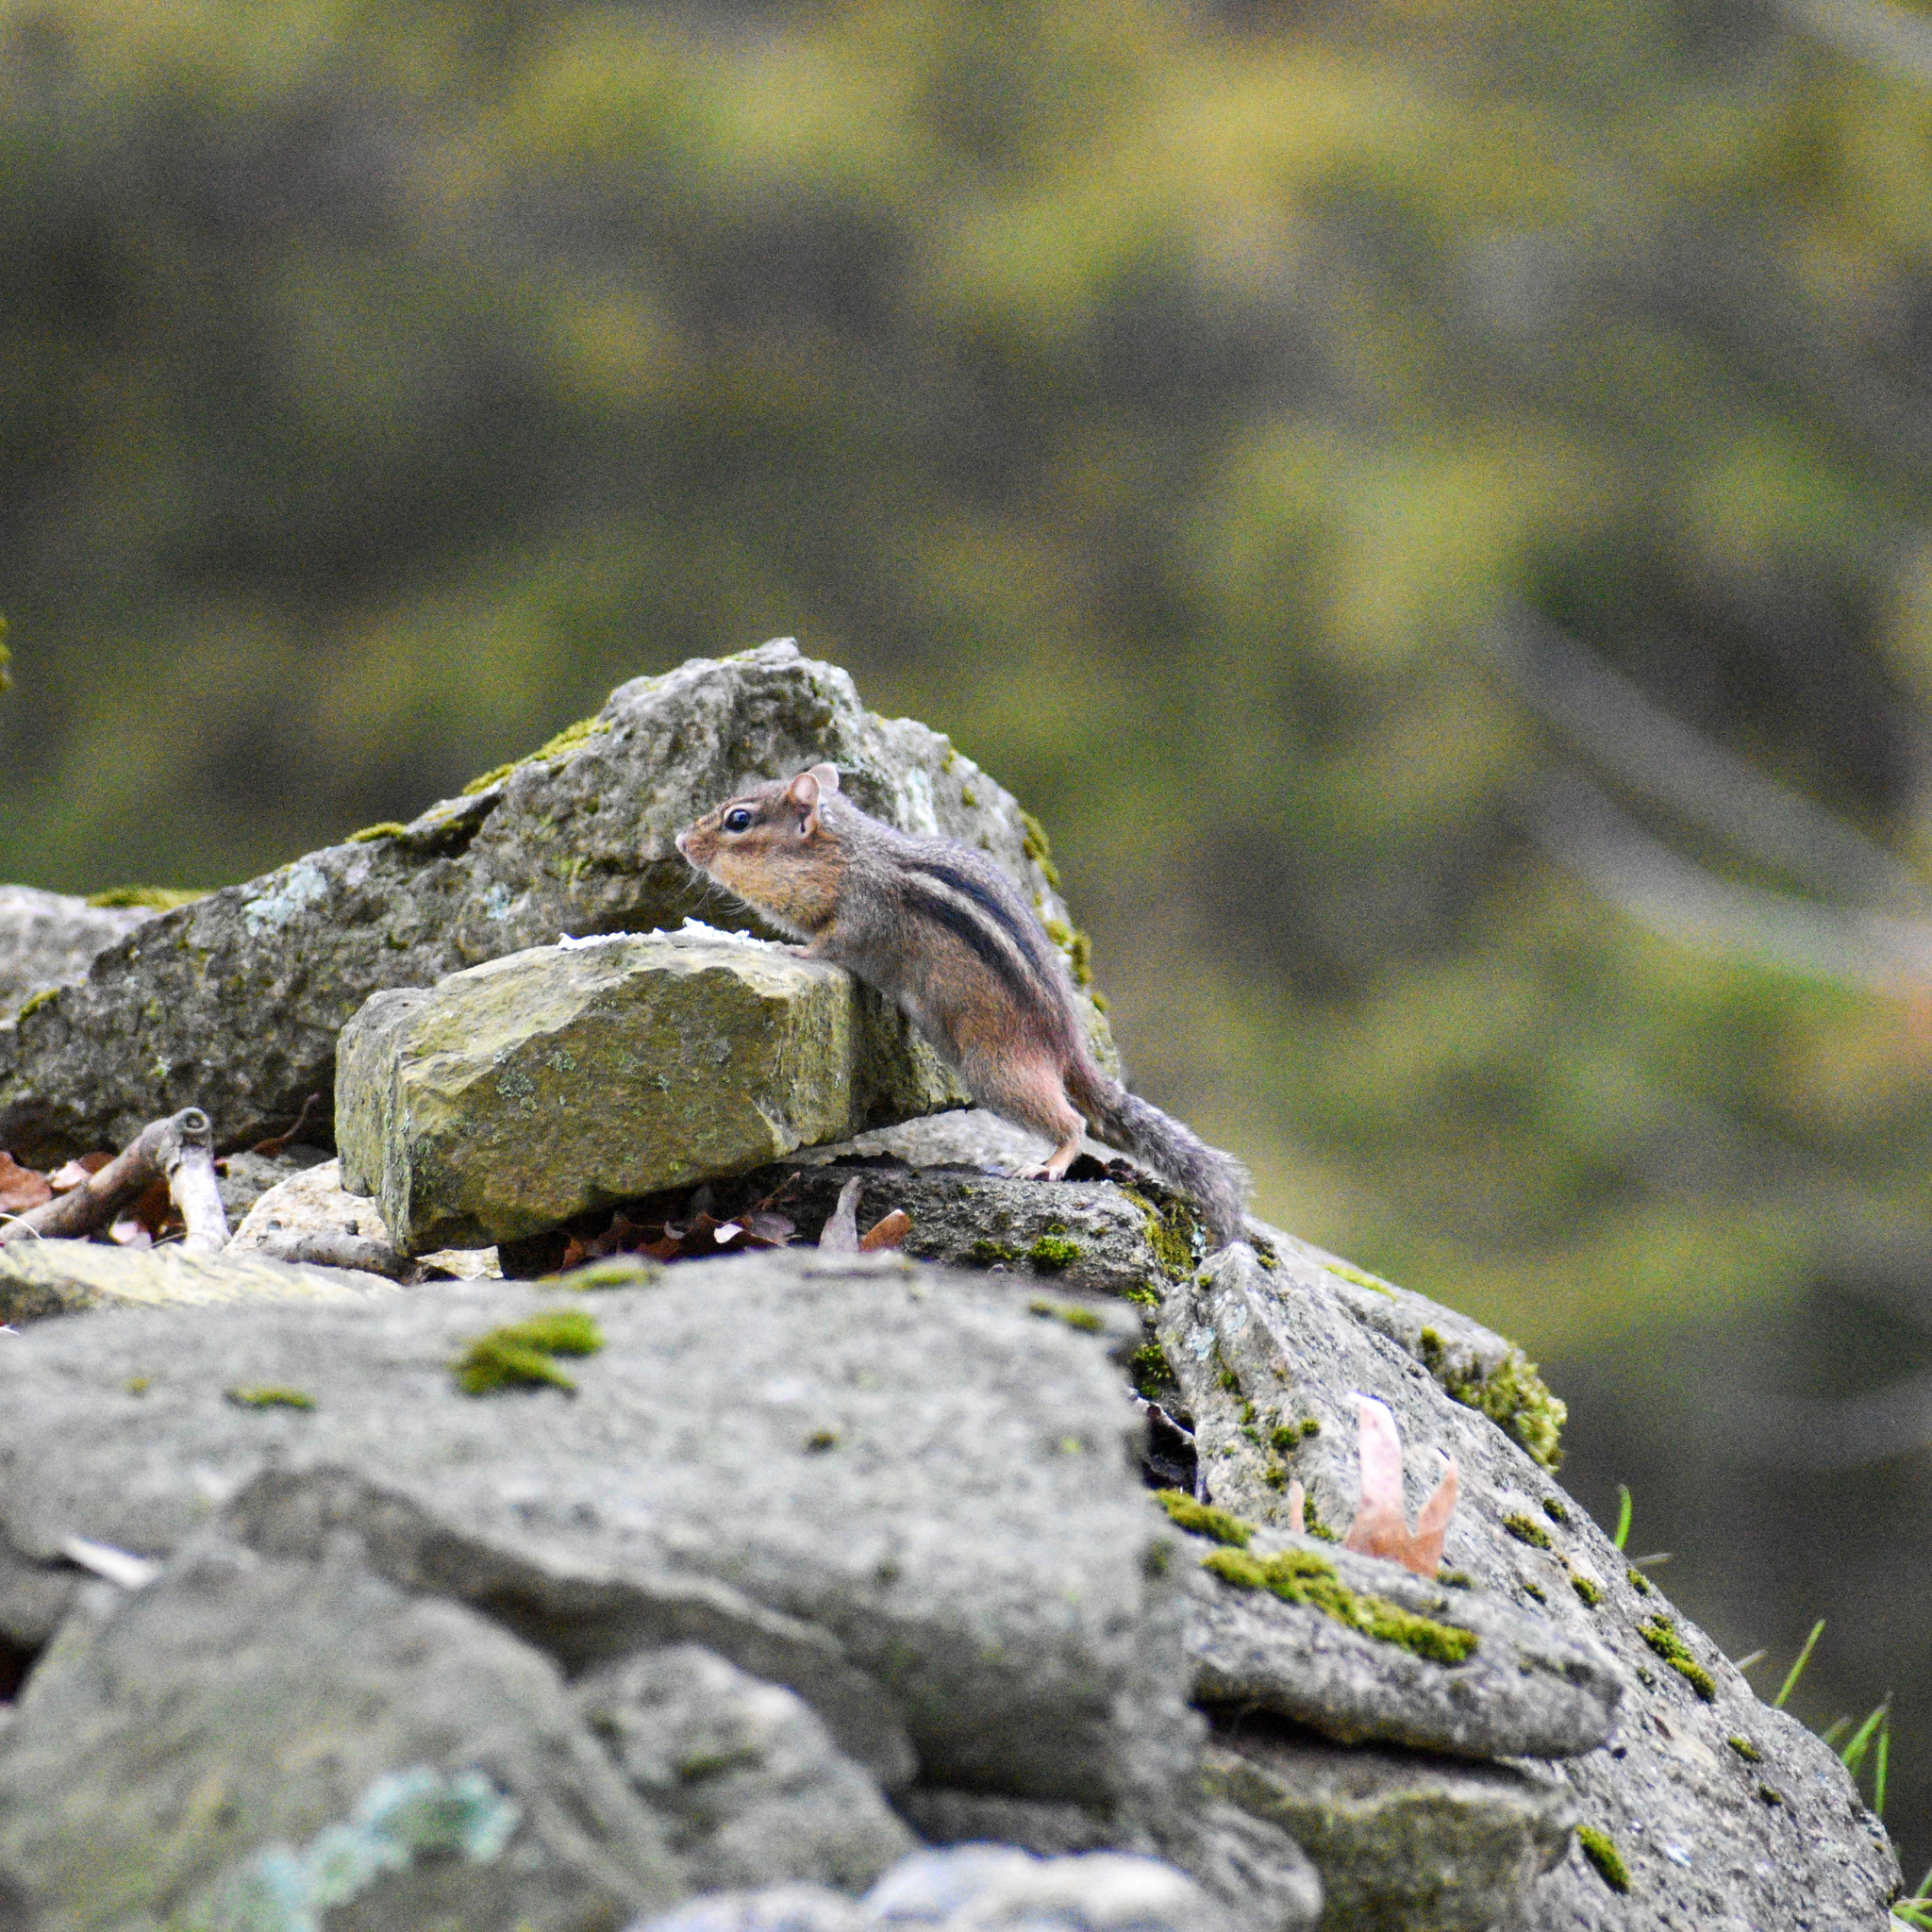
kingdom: Animalia
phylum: Chordata
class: Mammalia
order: Rodentia
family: Sciuridae
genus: Tamias
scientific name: Tamias striatus
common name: Eastern chipmunk
